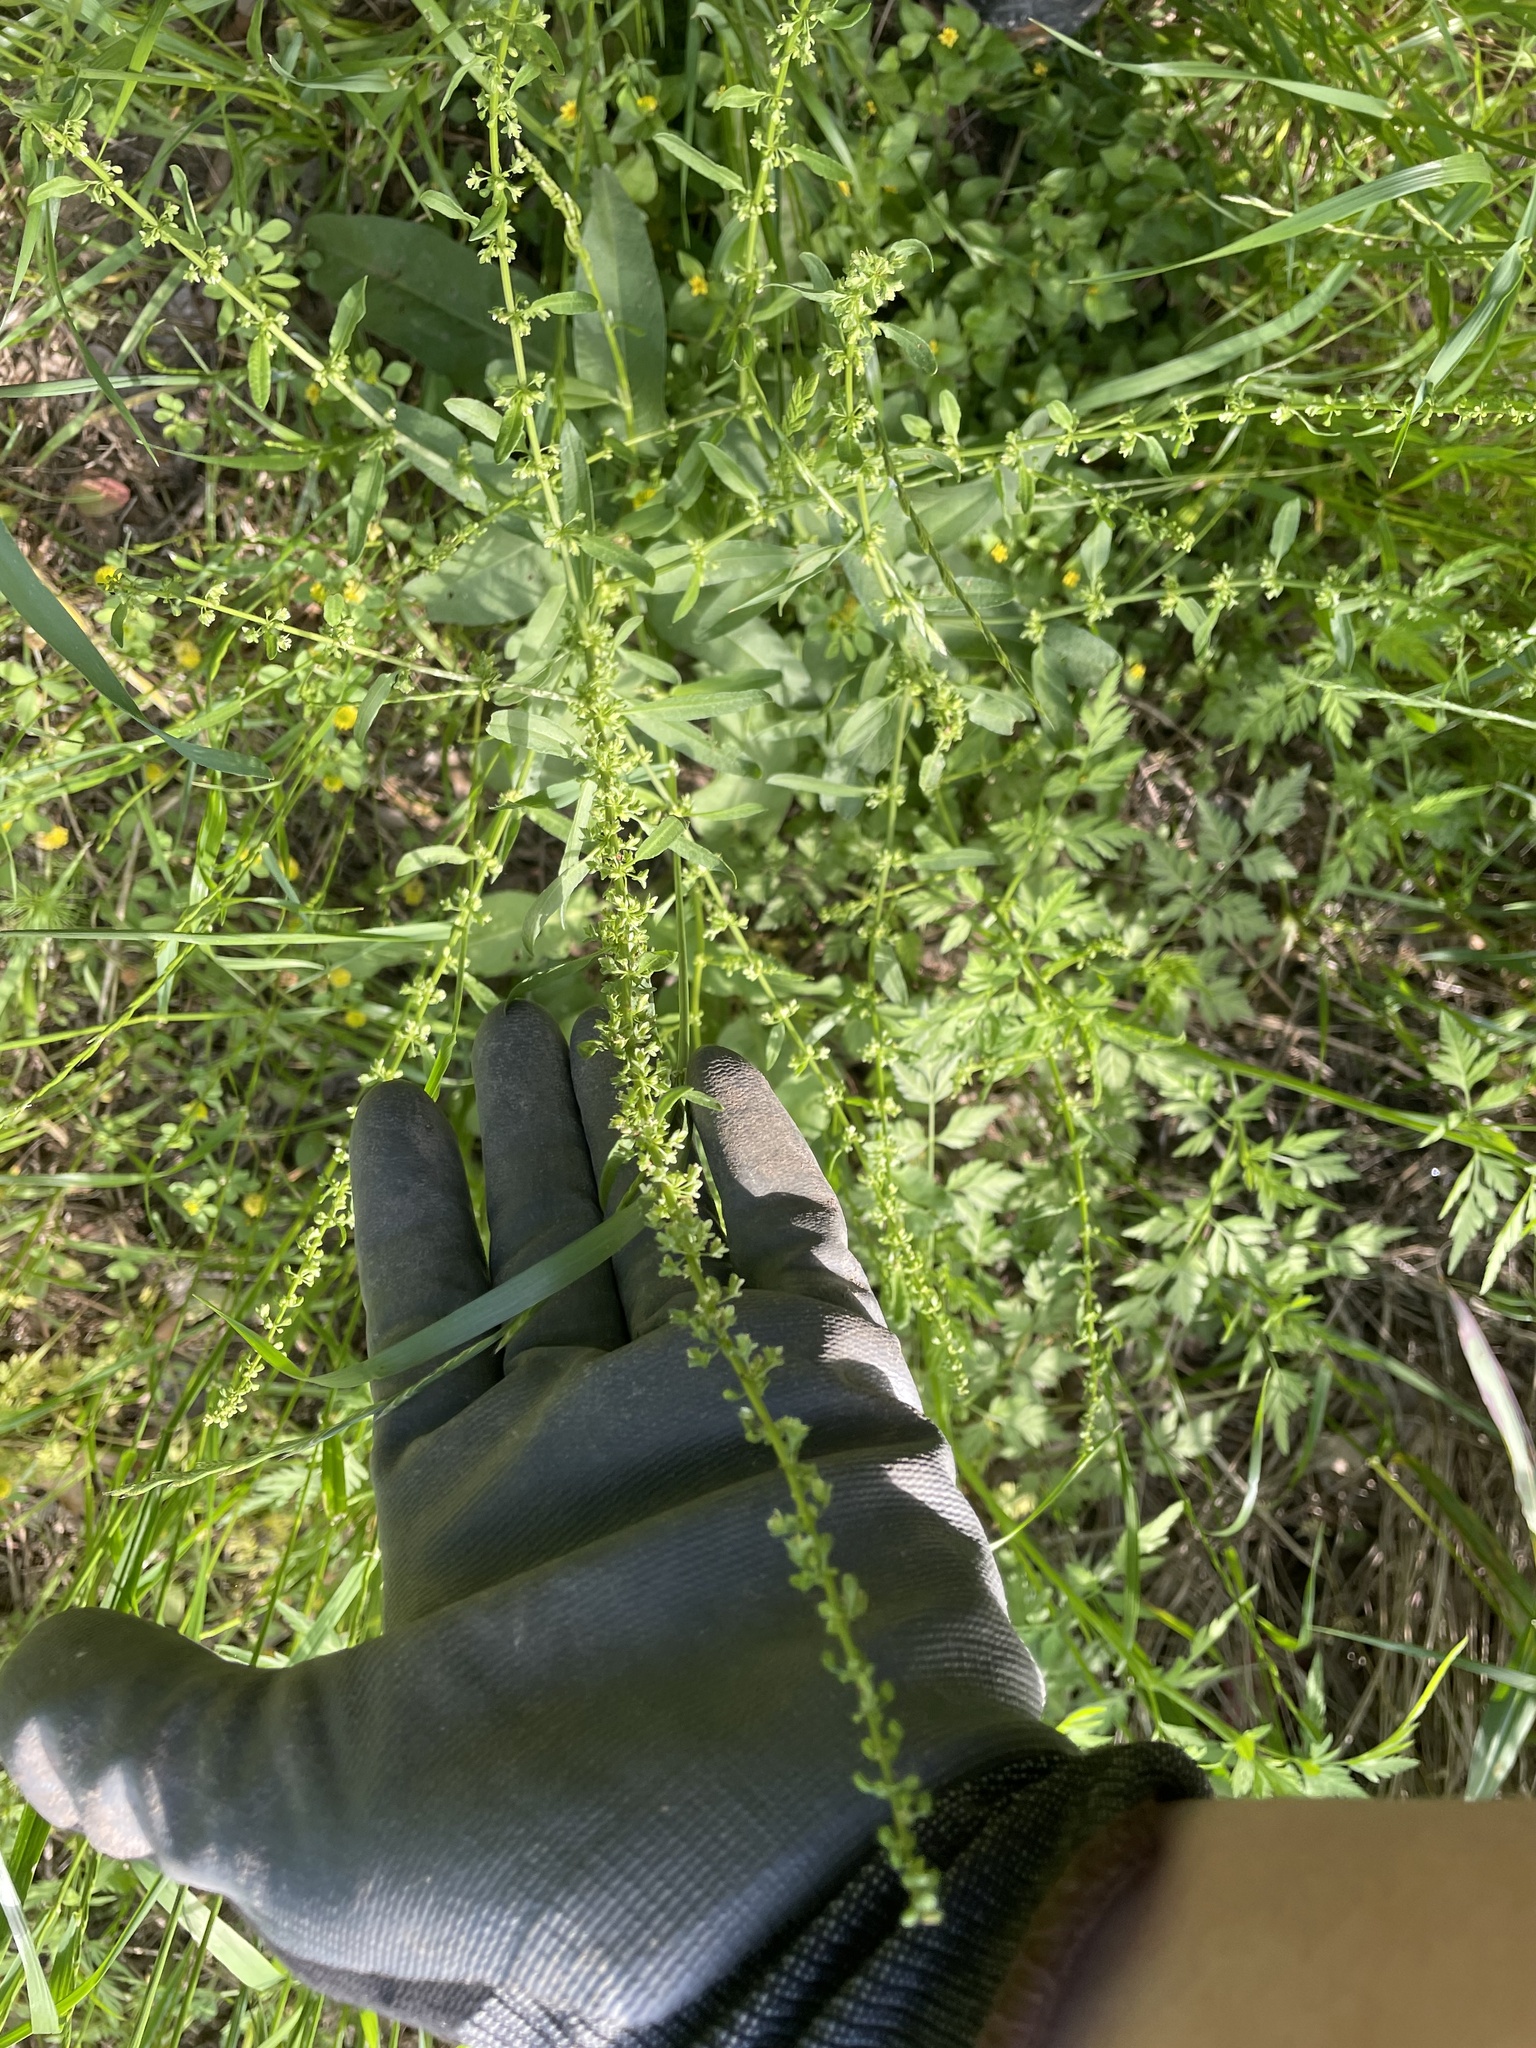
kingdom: Plantae
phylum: Tracheophyta
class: Magnoliopsida
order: Caryophyllales
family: Polygonaceae
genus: Rumex
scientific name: Rumex pulcher
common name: Fiddle dock
